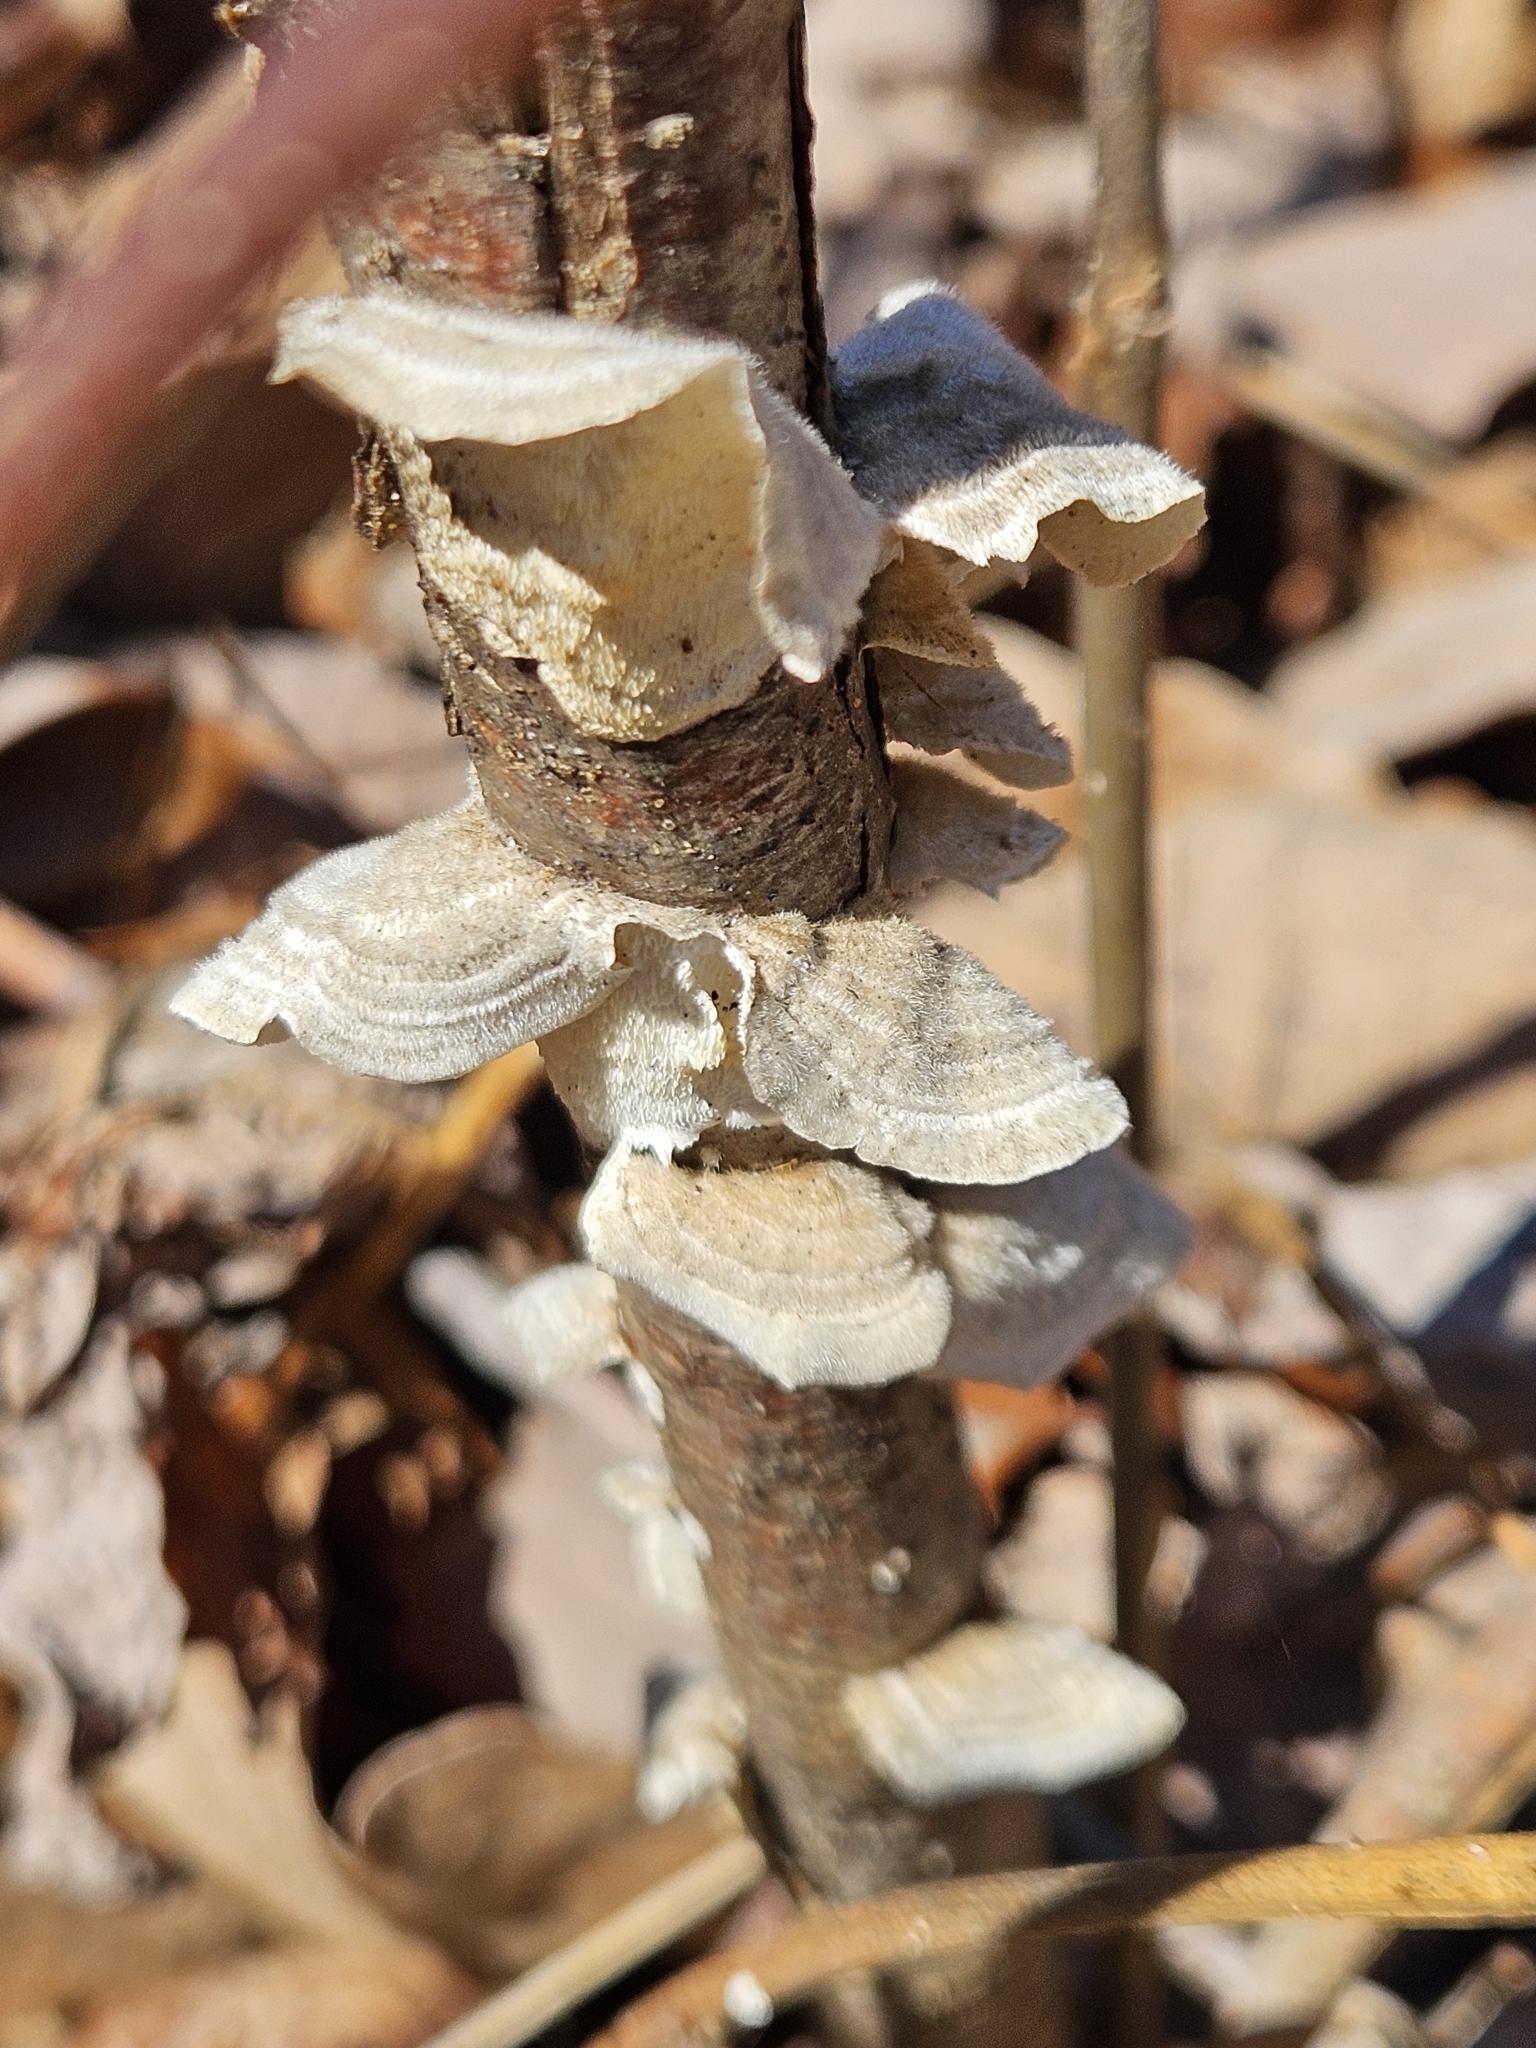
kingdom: Fungi
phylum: Basidiomycota
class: Agaricomycetes
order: Polyporales
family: Polyporaceae
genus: Trametes
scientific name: Trametes hirsuta
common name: Hairy bracket
